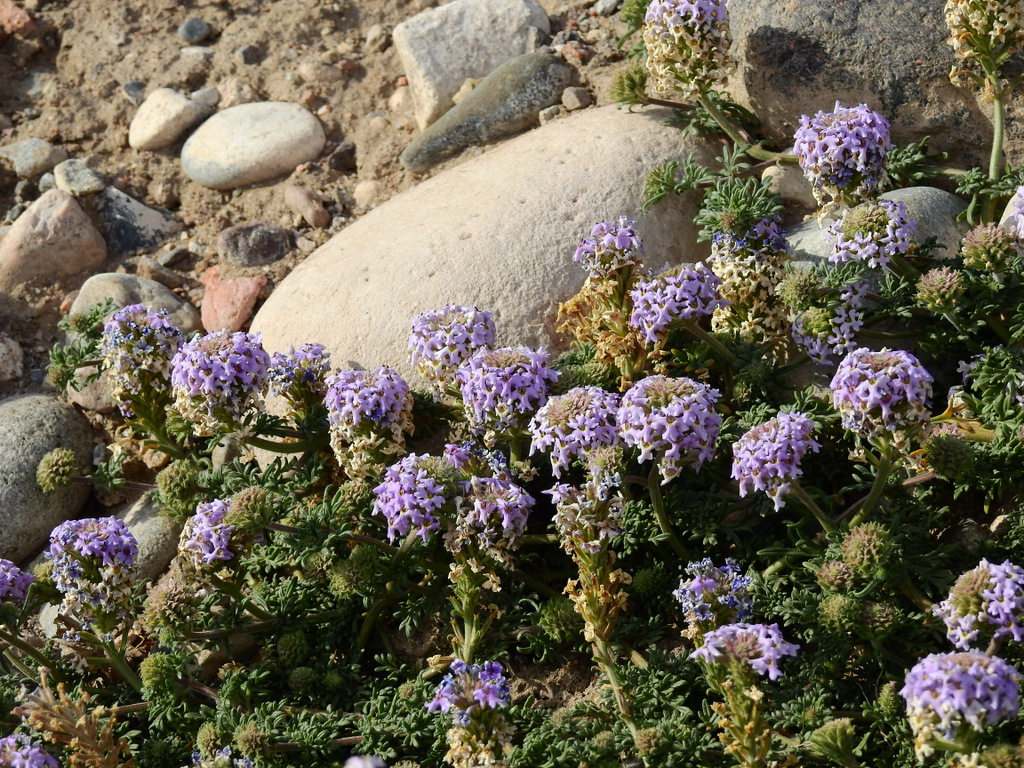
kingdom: Plantae
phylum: Tracheophyta
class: Magnoliopsida
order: Lamiales
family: Verbenaceae
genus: Verbena
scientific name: Verbena parodii
